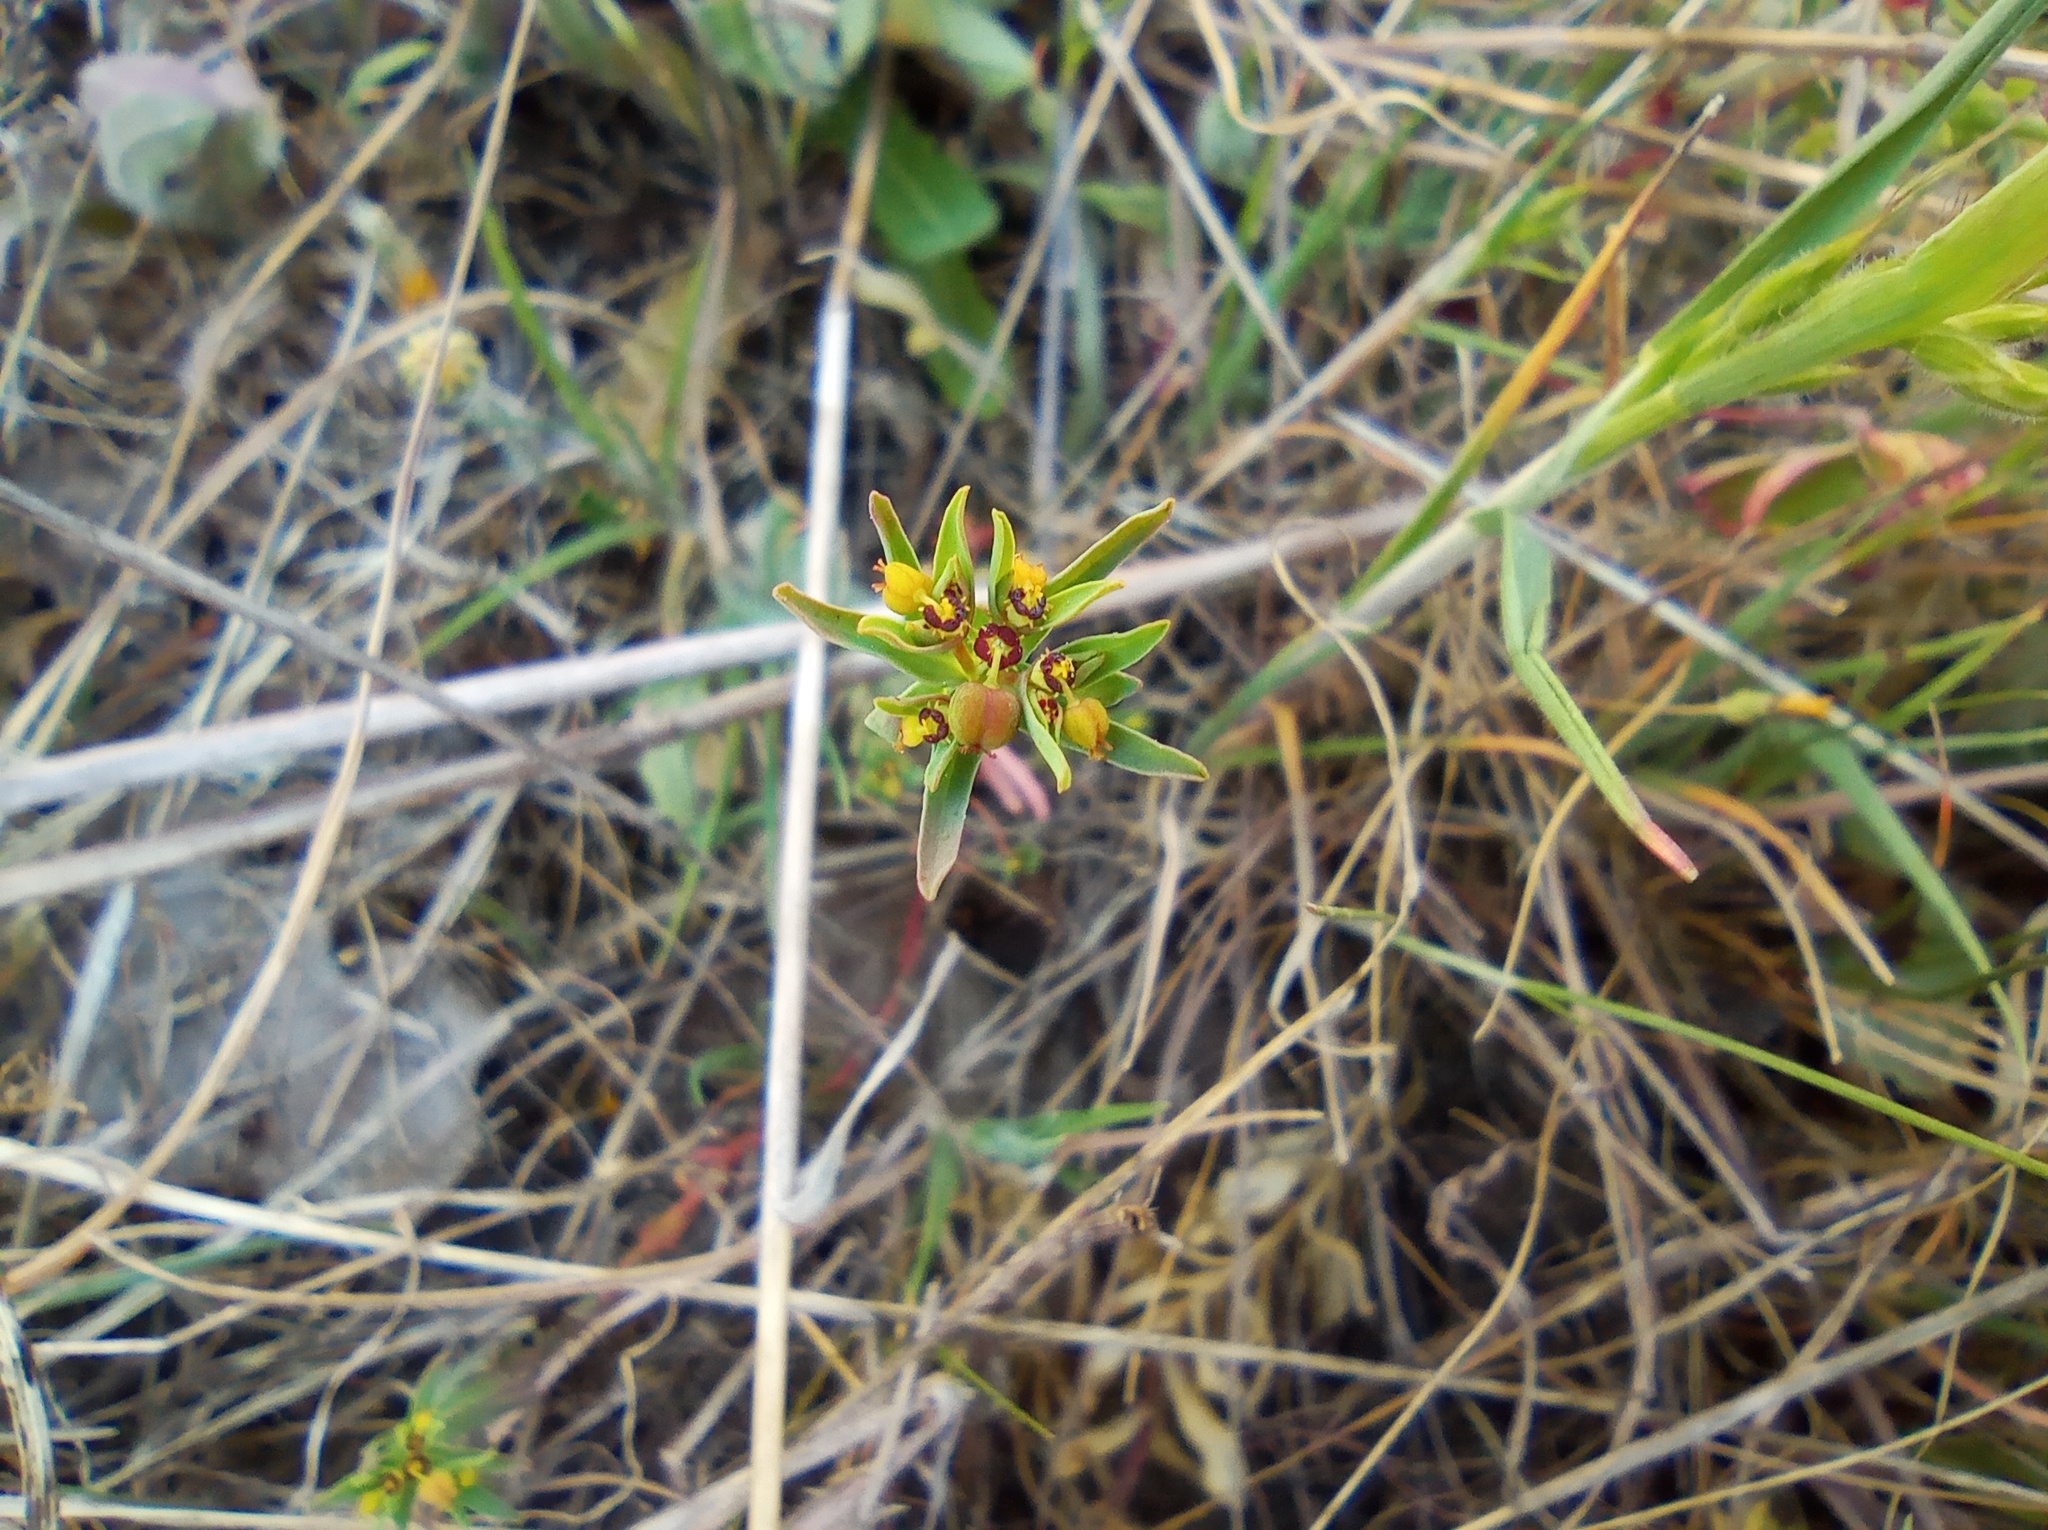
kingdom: Plantae
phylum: Tracheophyta
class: Magnoliopsida
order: Malpighiales
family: Euphorbiaceae
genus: Euphorbia
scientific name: Euphorbia exigua
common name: Dwarf spurge
